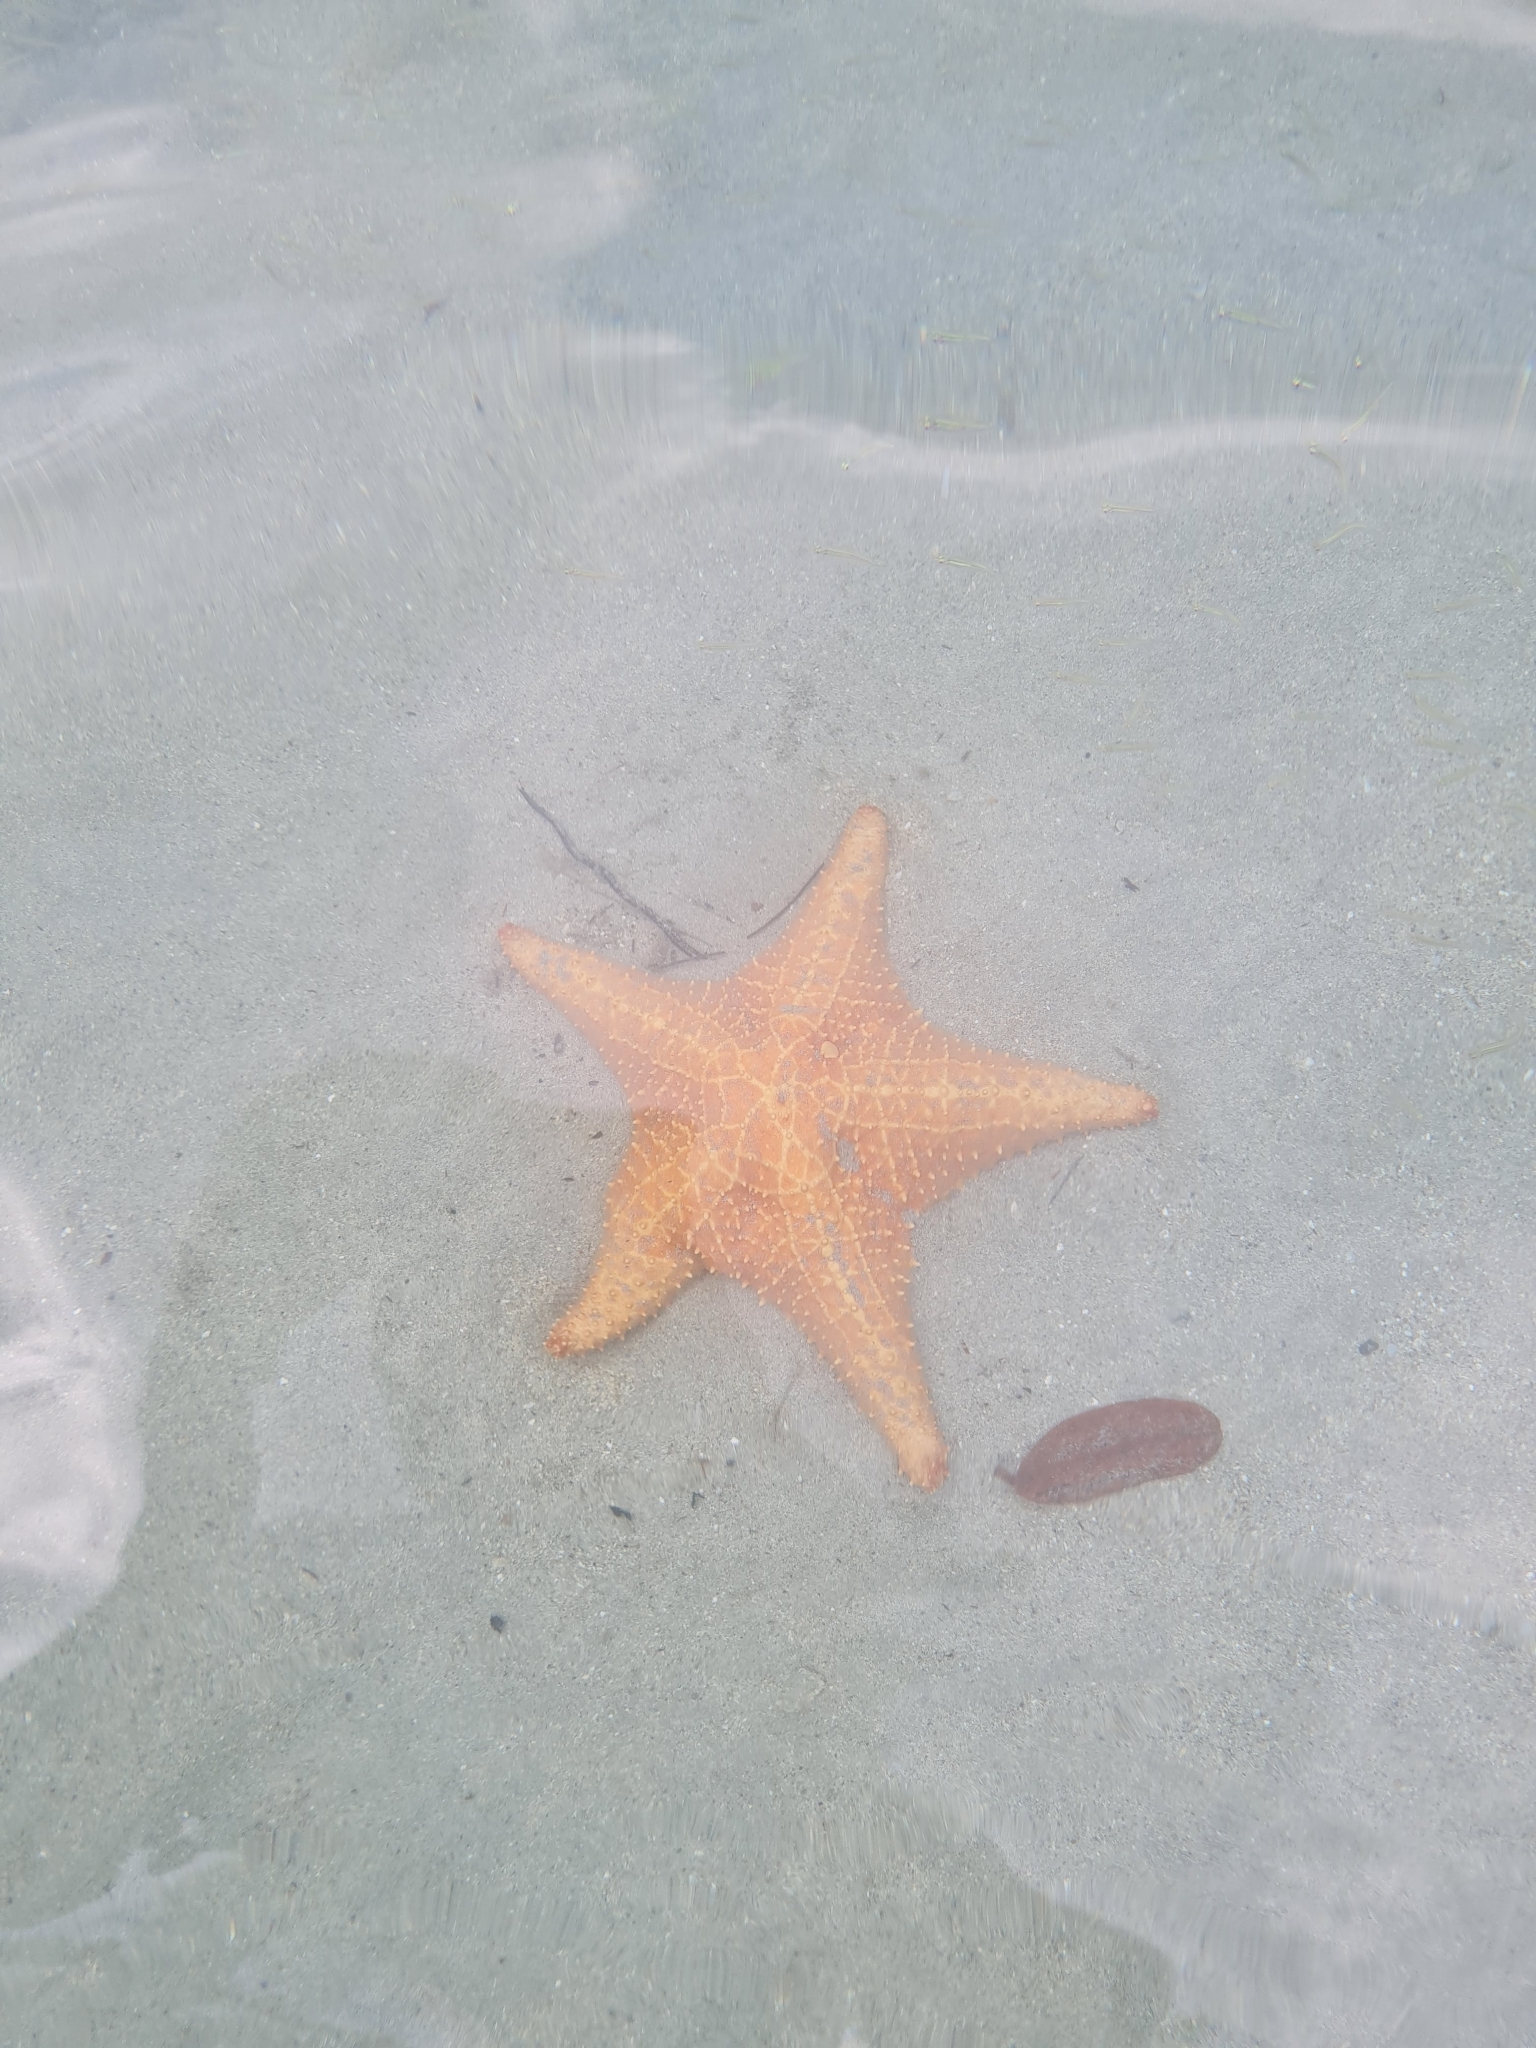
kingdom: Animalia
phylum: Echinodermata
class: Asteroidea
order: Valvatida
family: Oreasteridae
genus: Oreaster
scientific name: Oreaster reticulatus
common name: Cushion sea star
